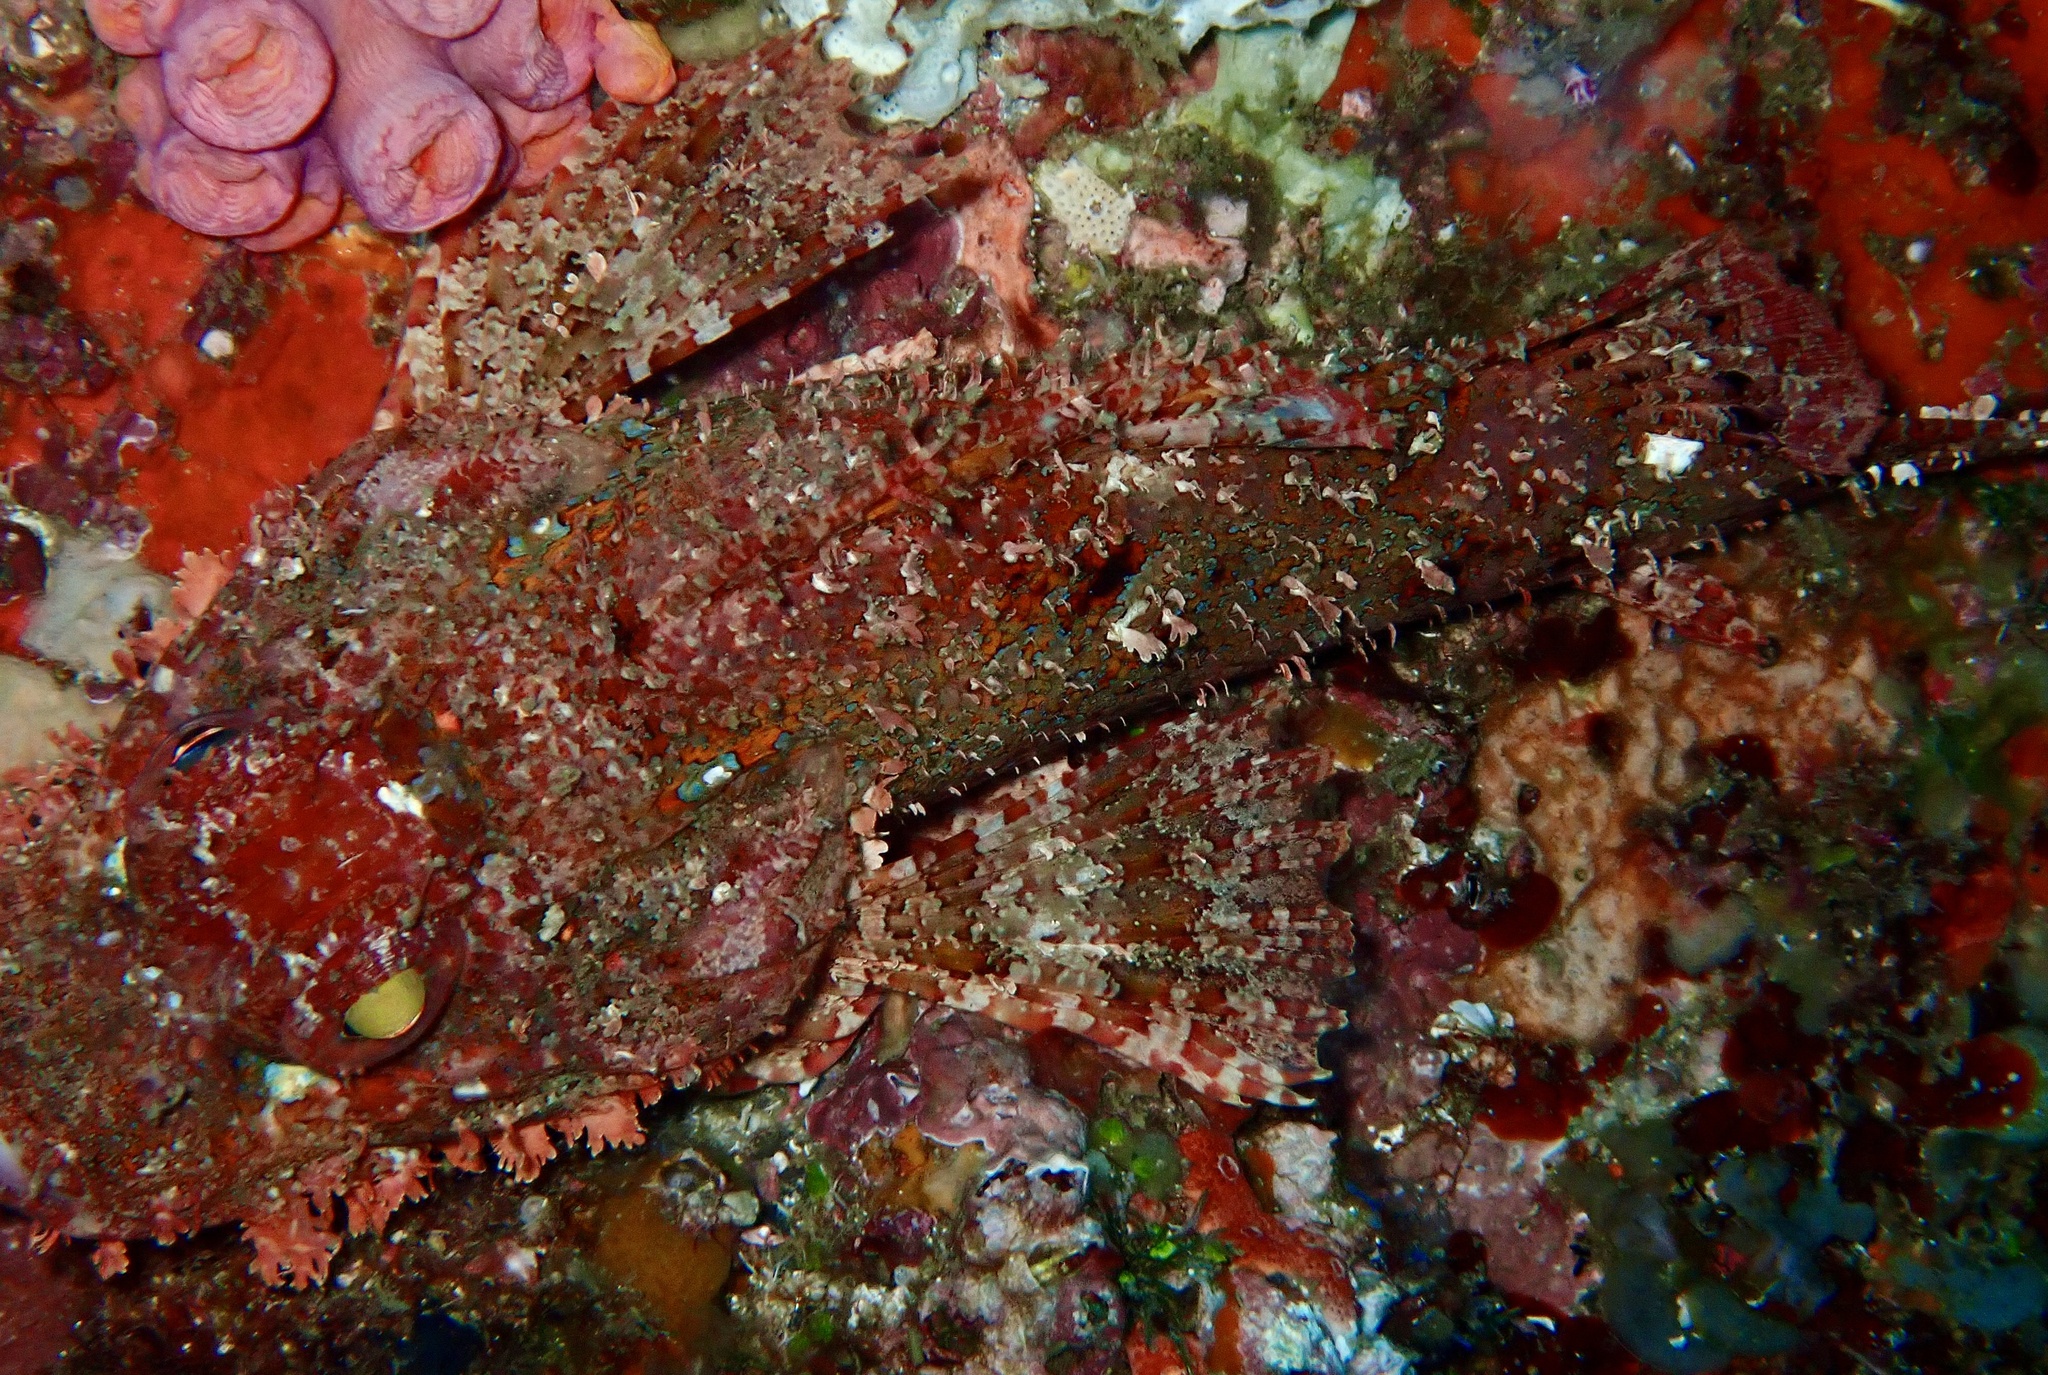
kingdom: Animalia
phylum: Chordata
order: Scorpaeniformes
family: Scorpaenidae
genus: Scorpaena
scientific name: Scorpaena jacksoniensis
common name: Eastern red scorpionfish
